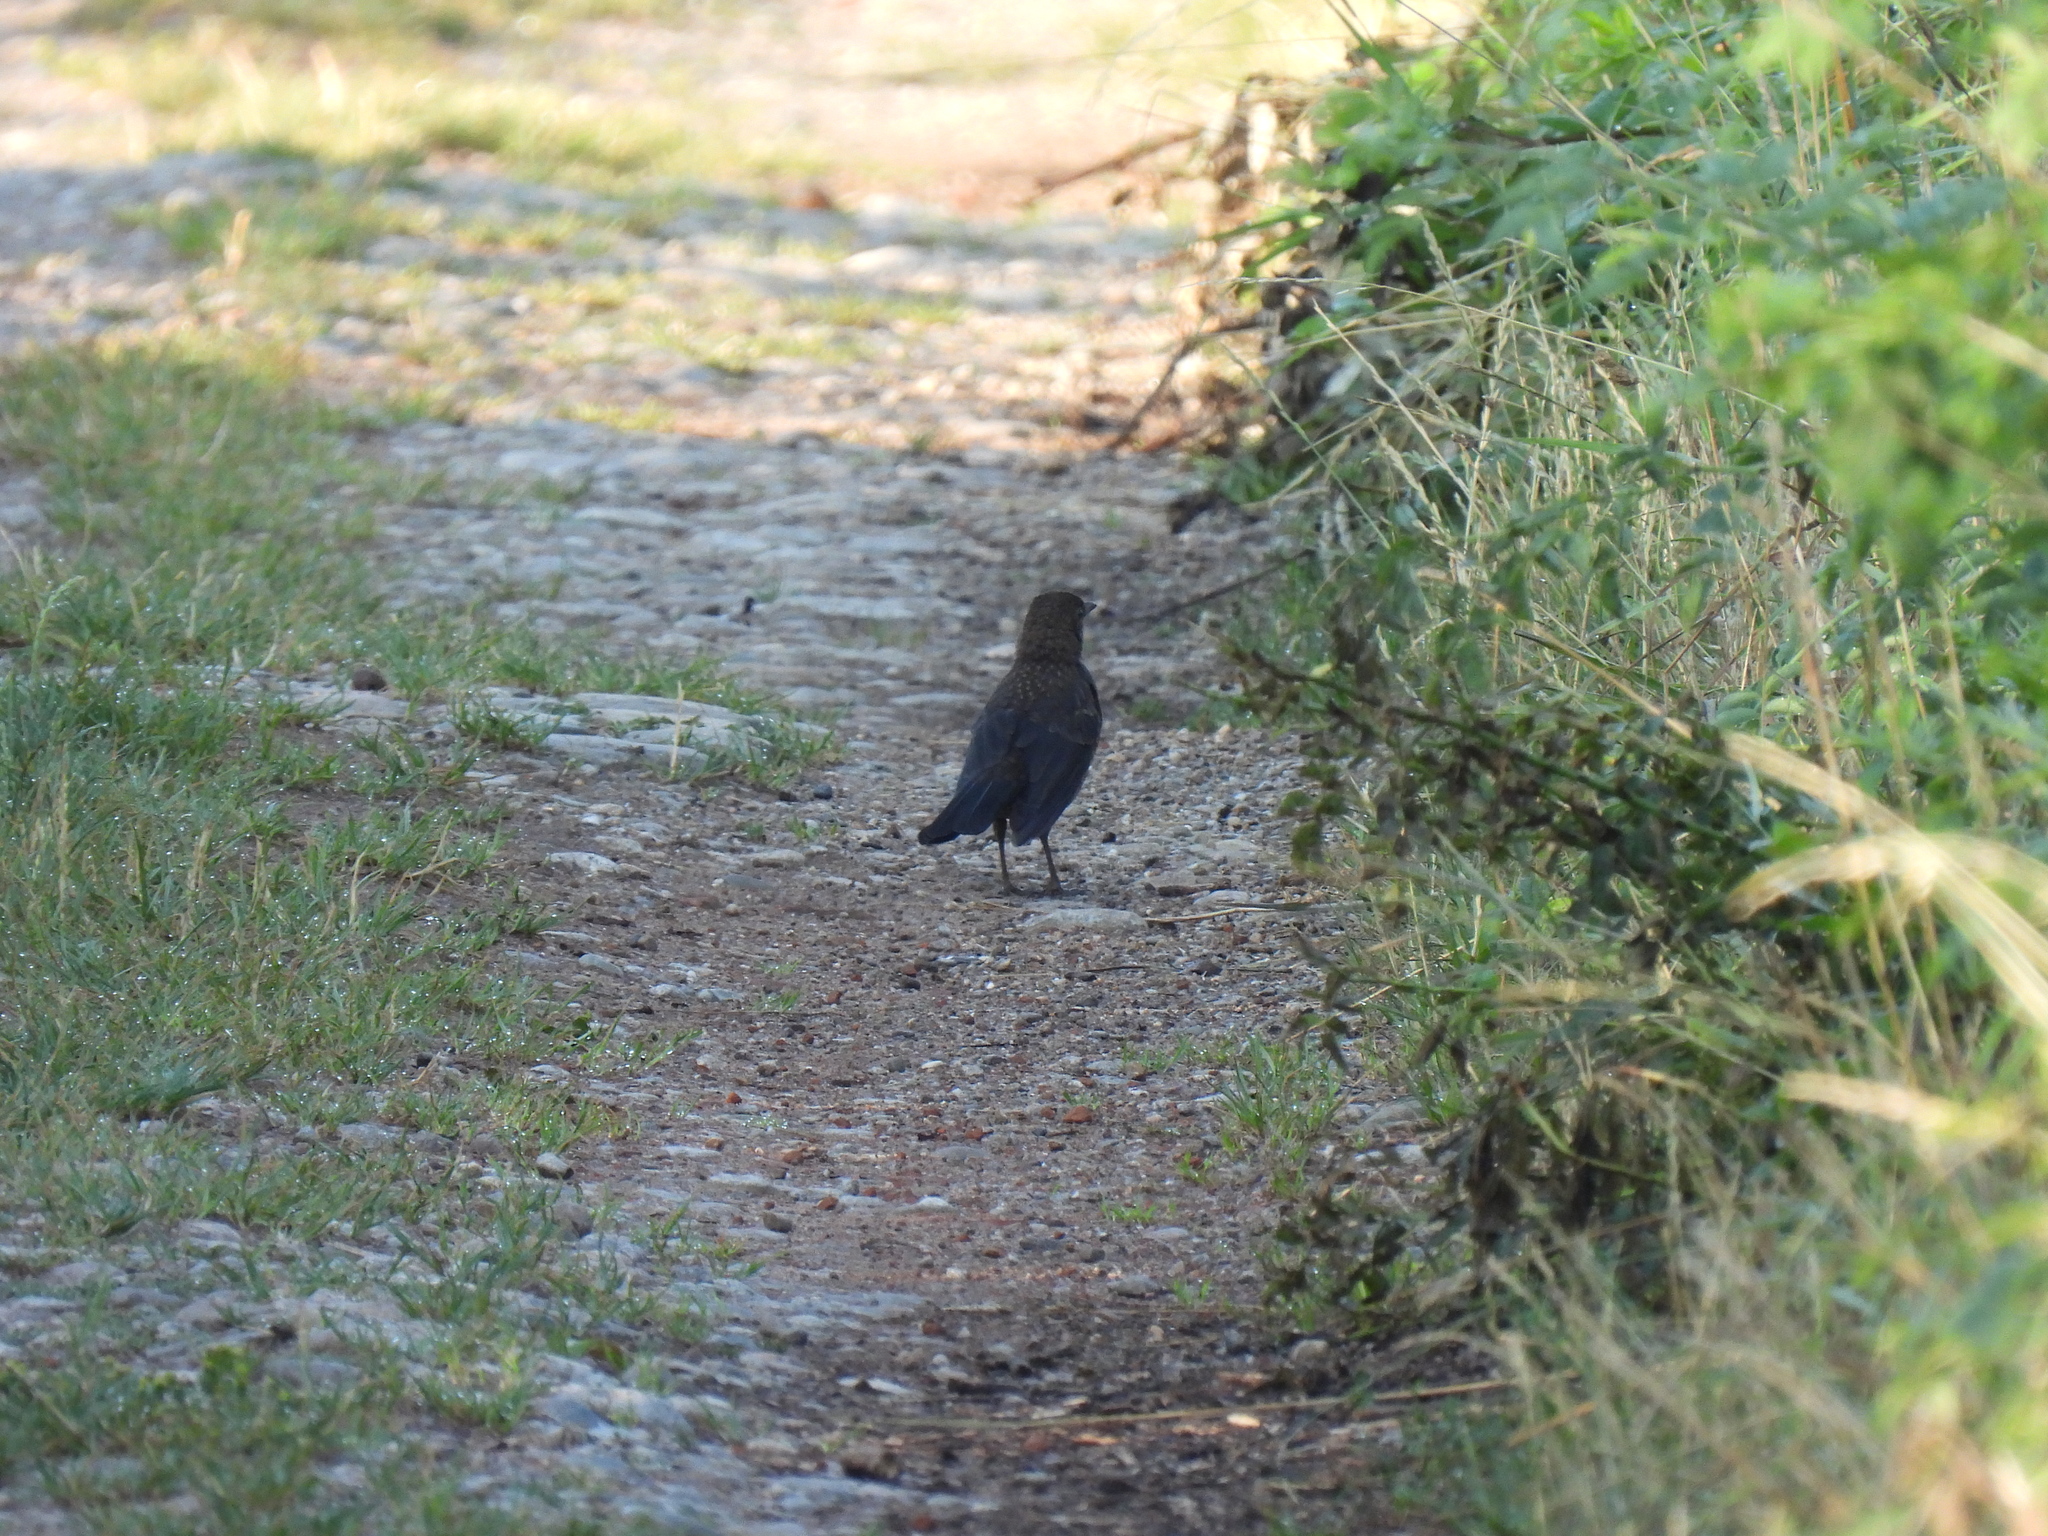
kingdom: Animalia
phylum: Chordata
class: Aves
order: Passeriformes
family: Turdidae
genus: Turdus
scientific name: Turdus merula
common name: Common blackbird
